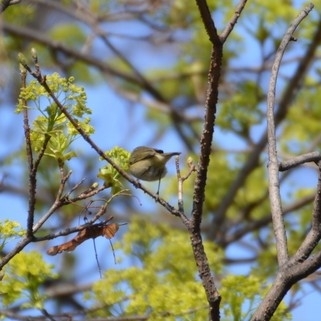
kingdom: Animalia
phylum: Chordata
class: Aves
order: Passeriformes
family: Phylloscopidae
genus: Phylloscopus
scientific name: Phylloscopus collybita
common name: Common chiffchaff
